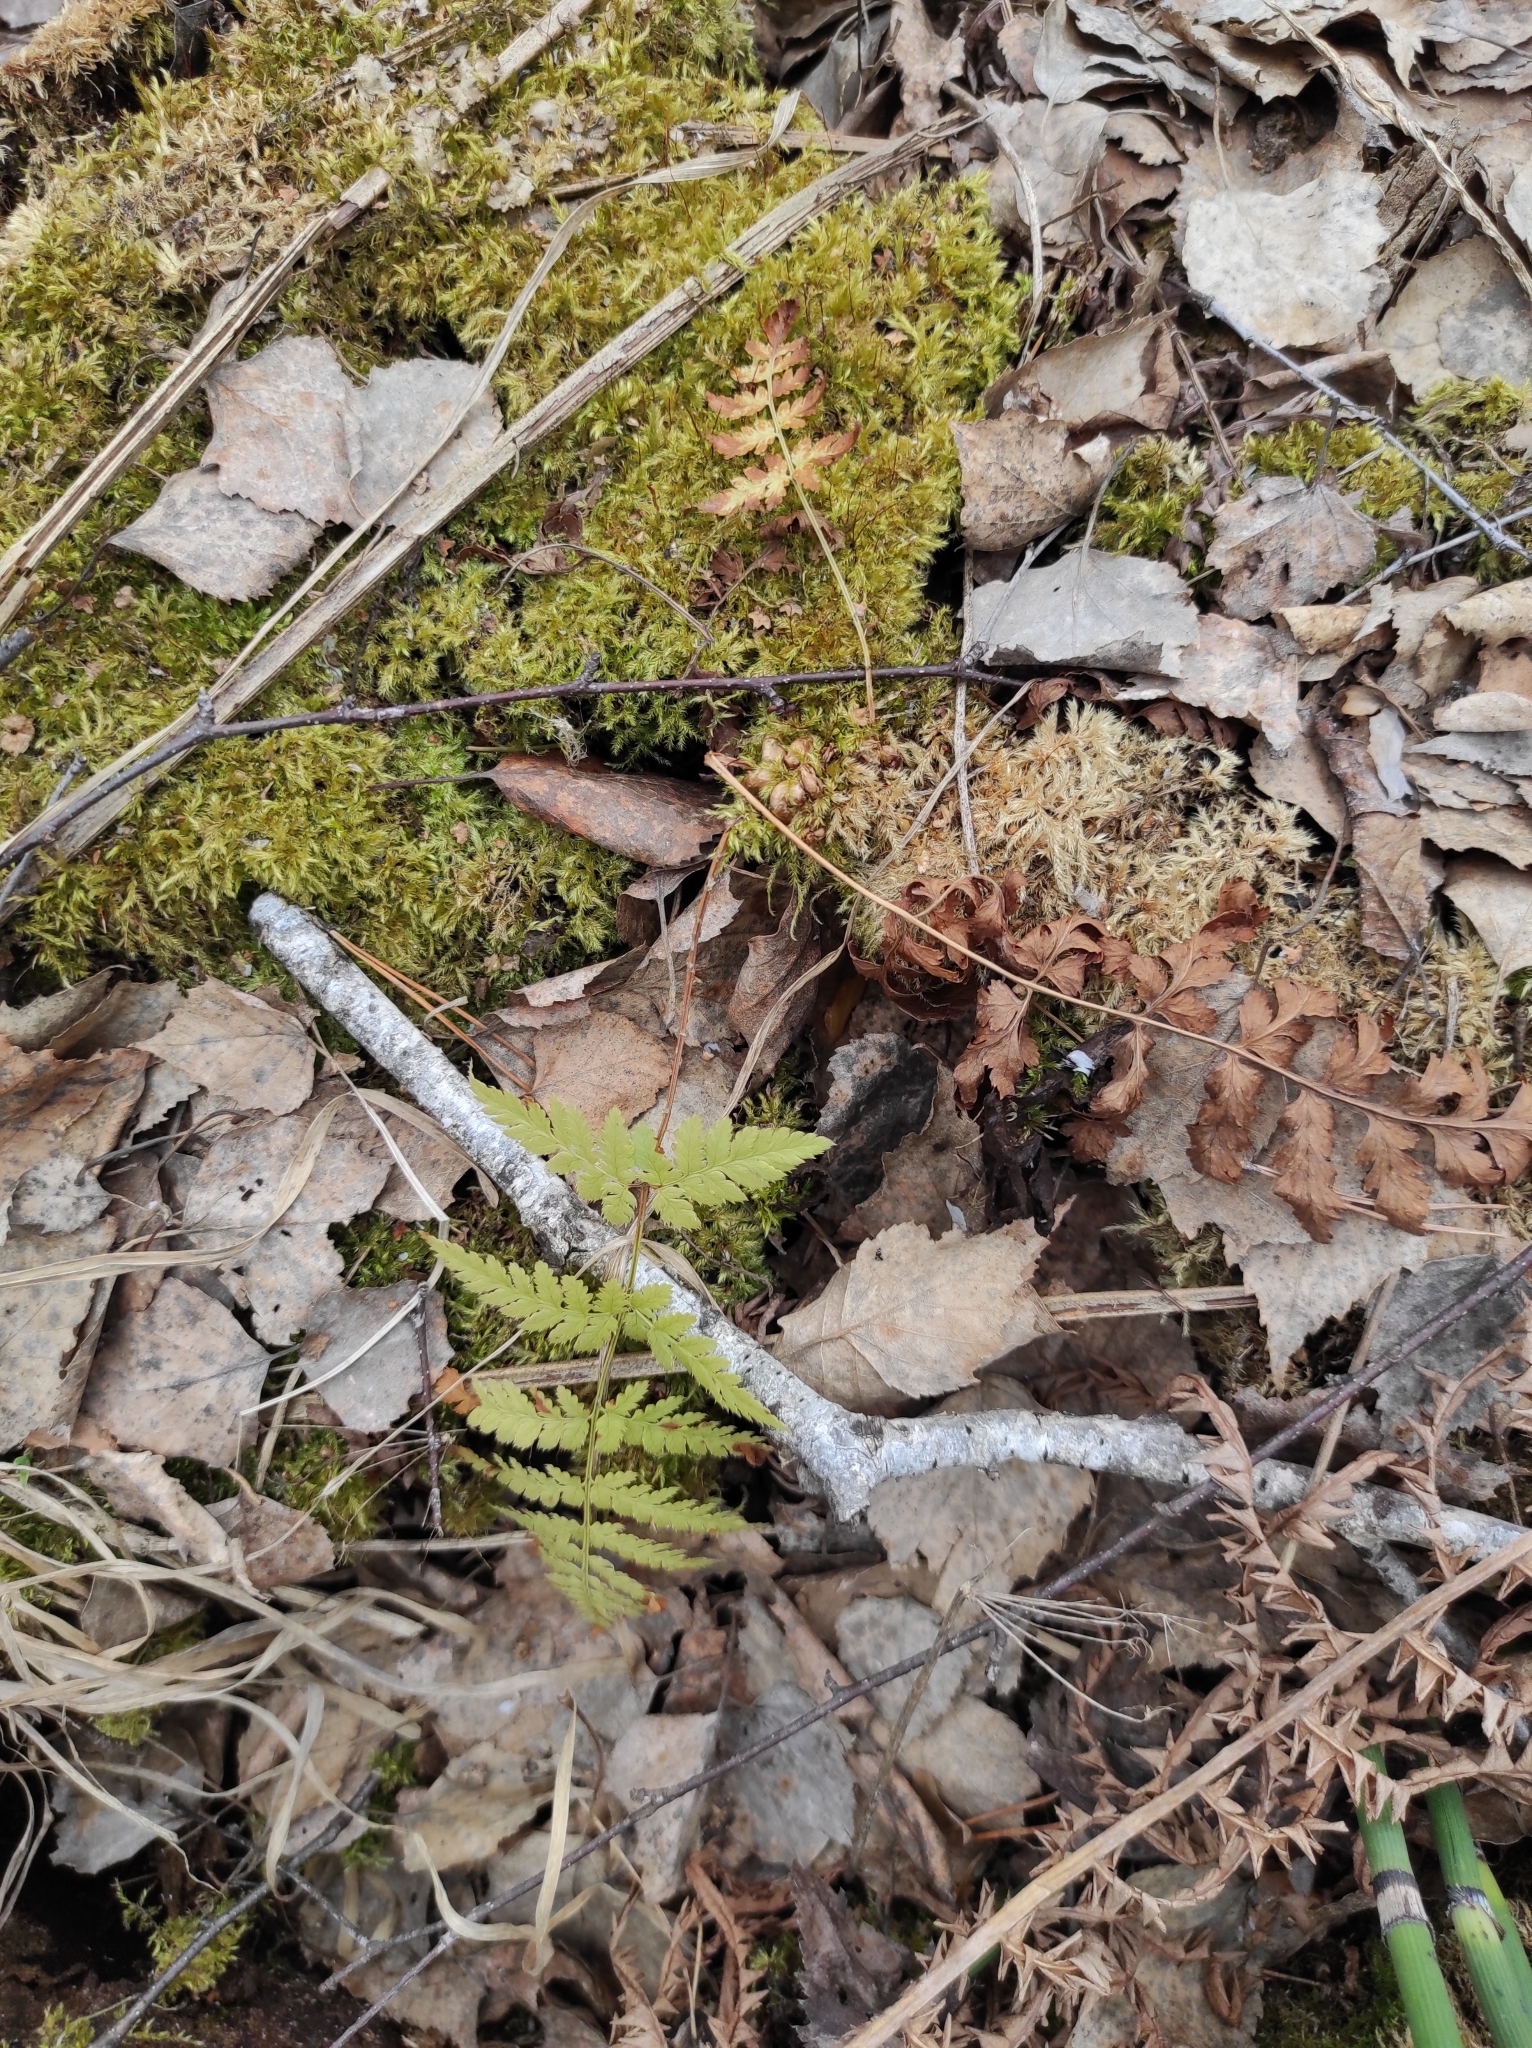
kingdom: Plantae
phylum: Tracheophyta
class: Polypodiopsida
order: Polypodiales
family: Dryopteridaceae
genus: Dryopteris
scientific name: Dryopteris carthusiana
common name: Narrow buckler-fern
